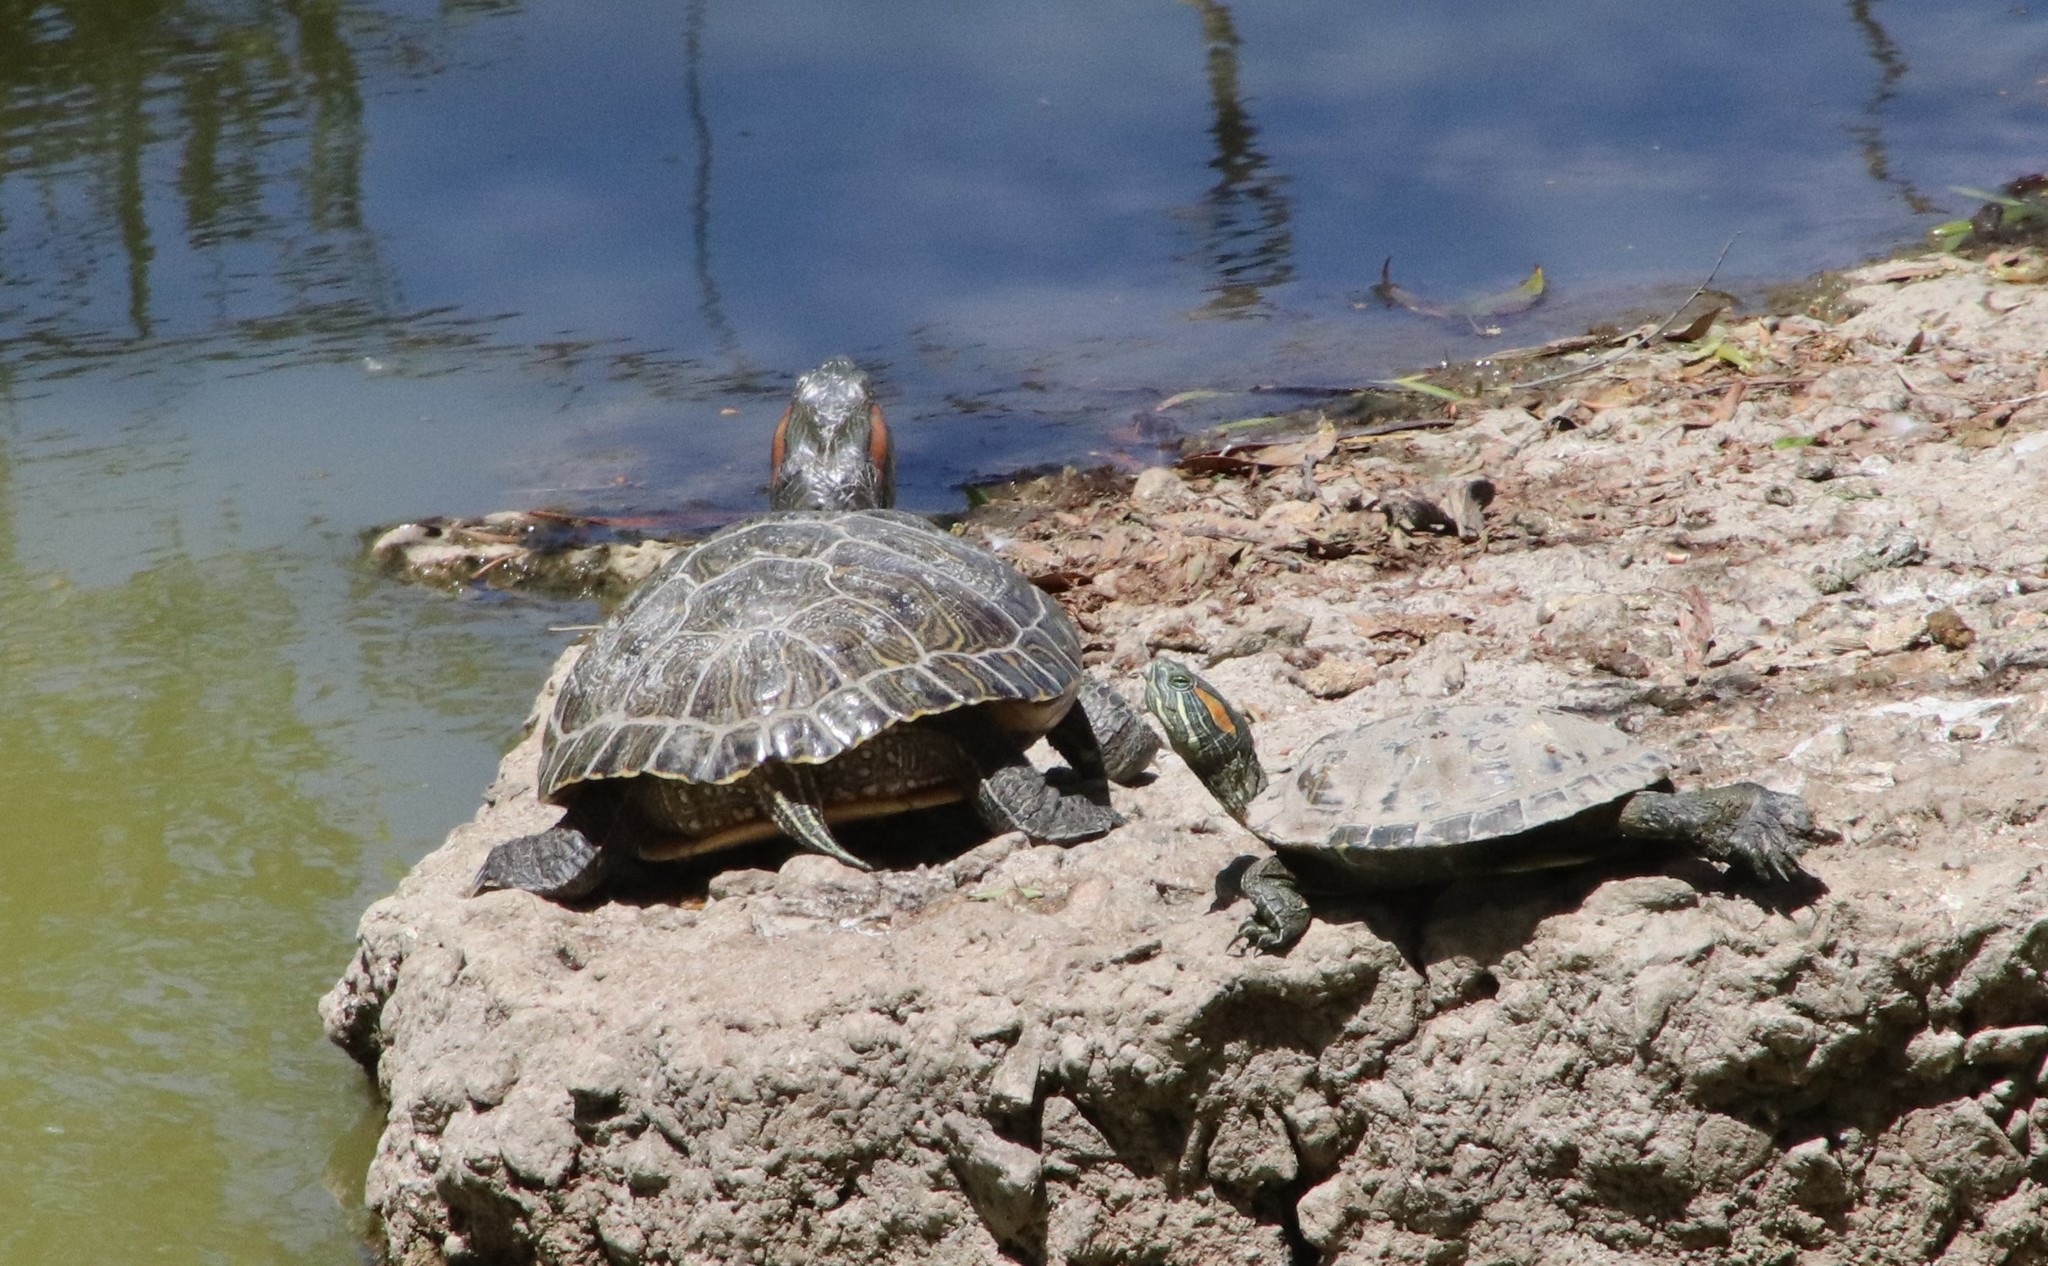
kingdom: Animalia
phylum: Chordata
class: Testudines
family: Emydidae
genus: Trachemys
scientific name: Trachemys scripta
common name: Slider
